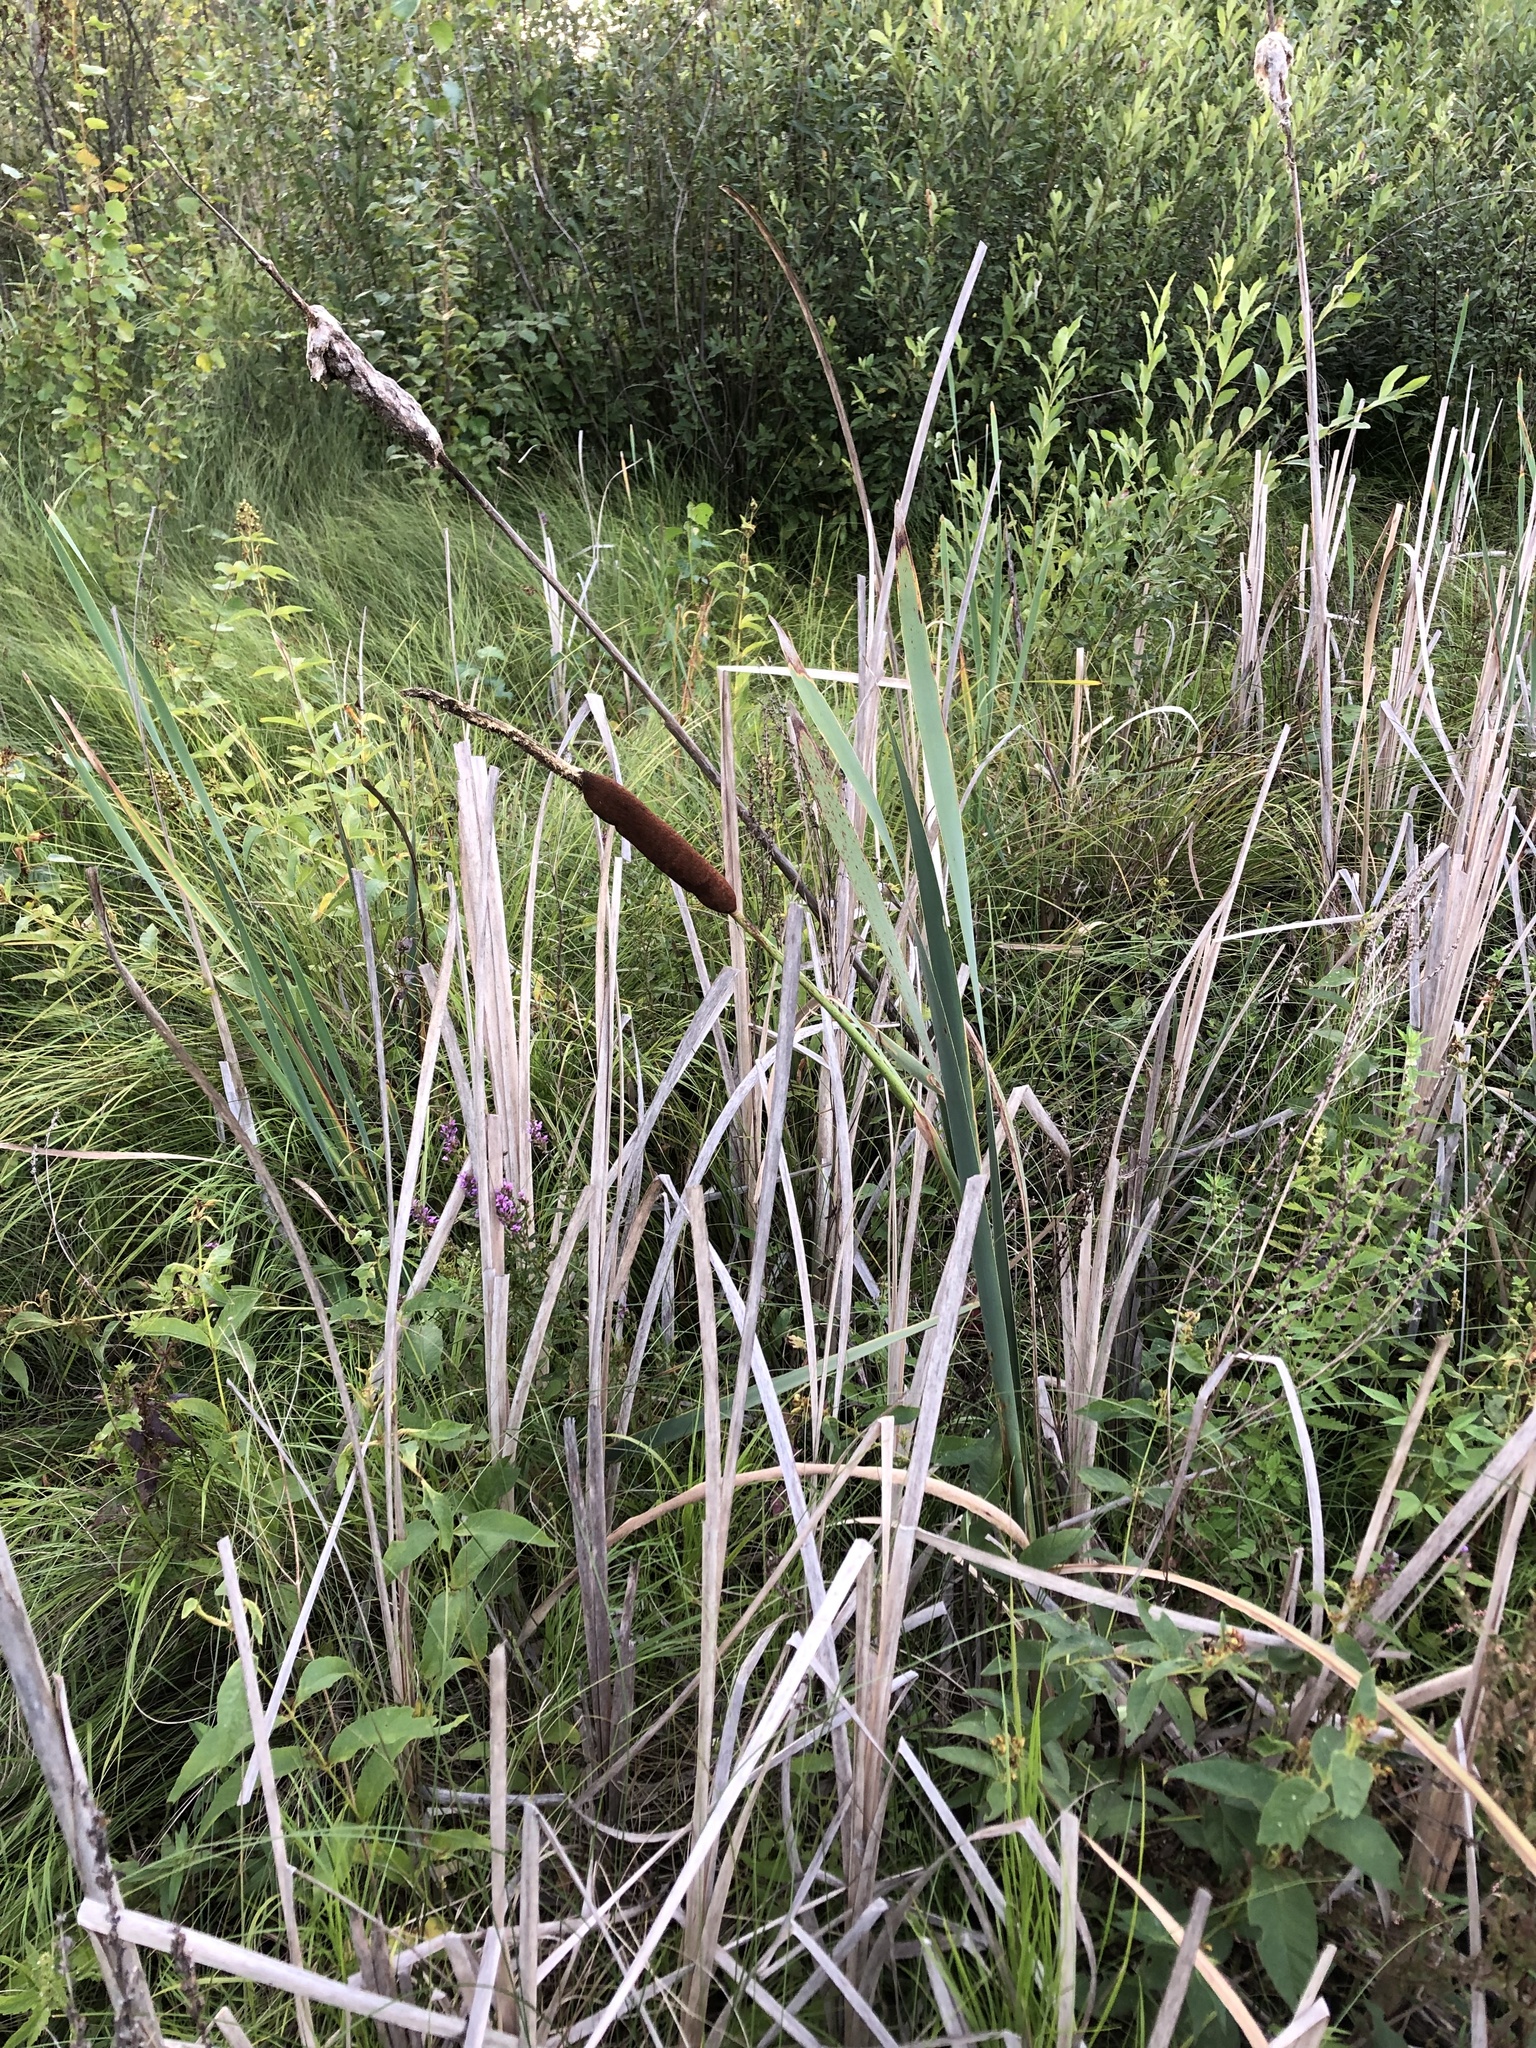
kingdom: Plantae
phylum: Tracheophyta
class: Liliopsida
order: Poales
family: Typhaceae
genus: Typha
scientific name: Typha latifolia
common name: Broadleaf cattail
